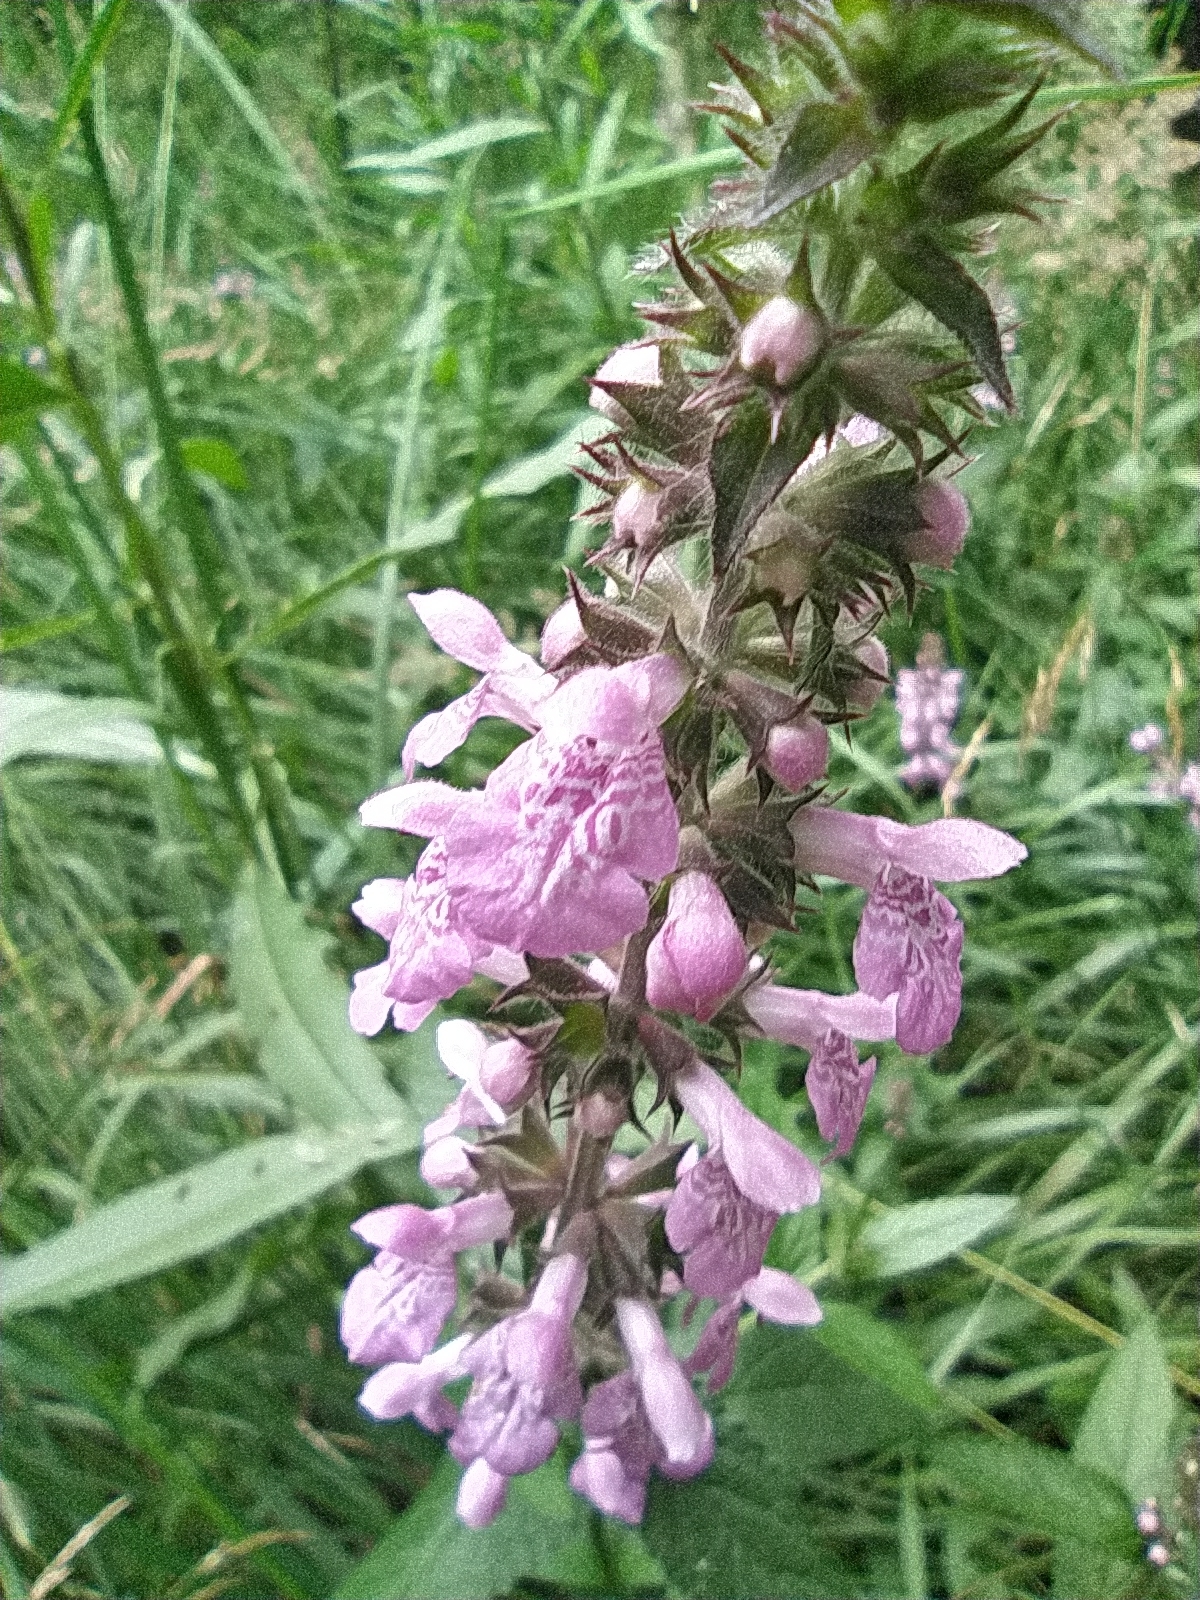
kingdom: Plantae
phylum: Tracheophyta
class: Magnoliopsida
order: Lamiales
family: Lamiaceae
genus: Stachys
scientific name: Stachys palustris
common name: Marsh woundwort
